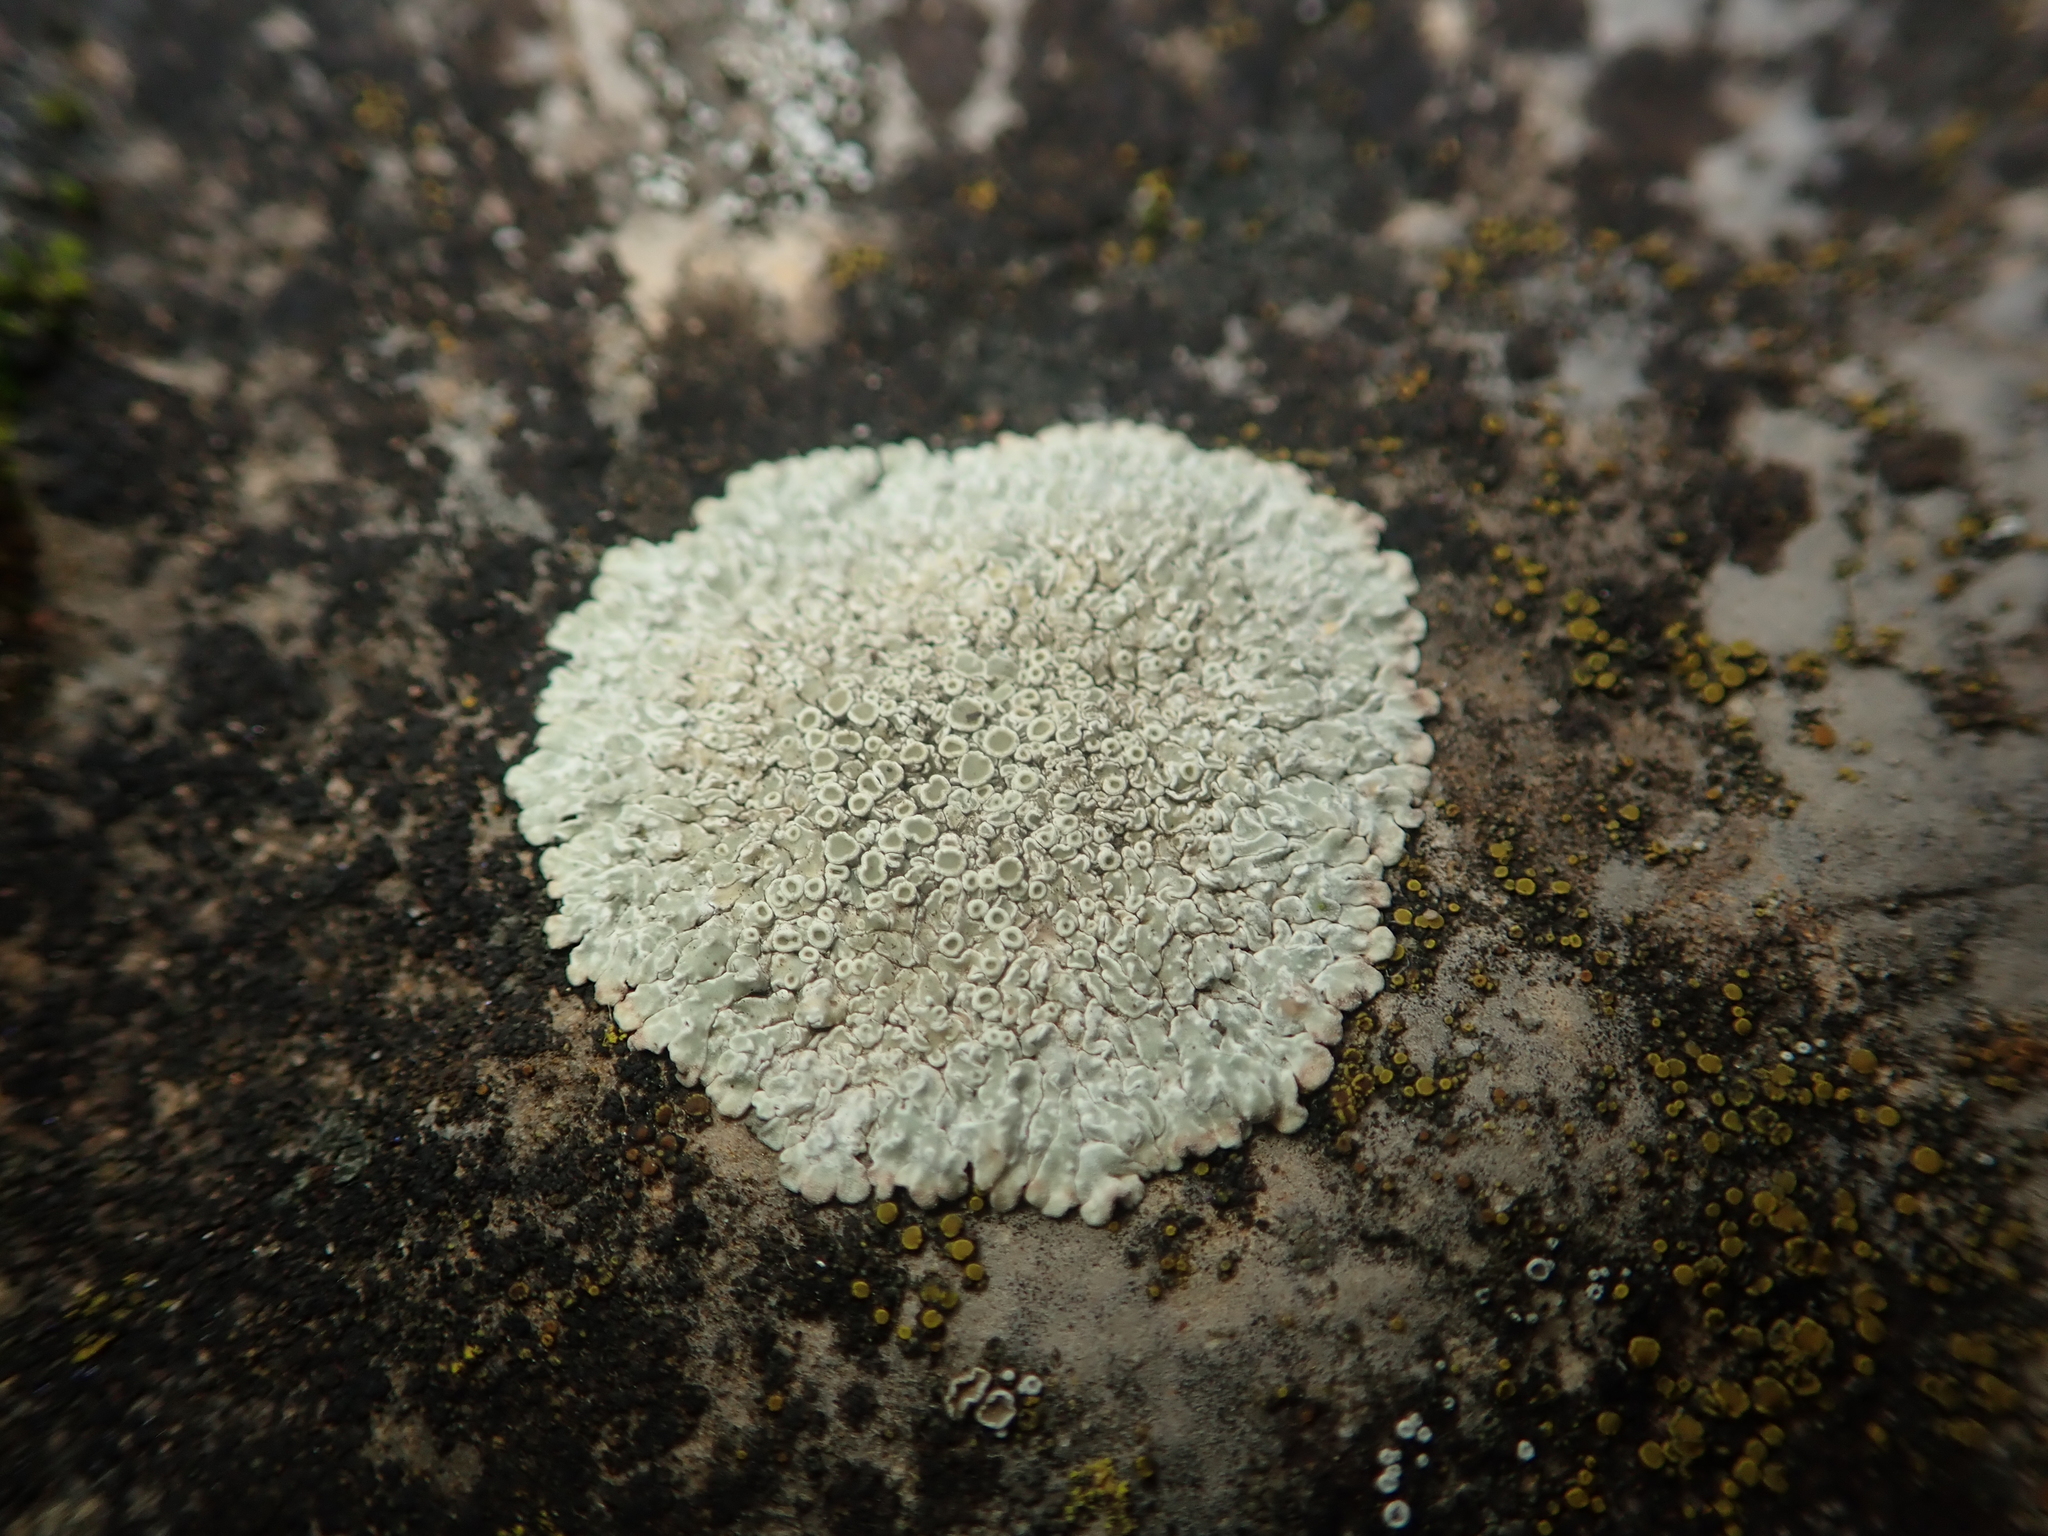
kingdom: Fungi
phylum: Ascomycota
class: Lecanoromycetes
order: Lecanorales
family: Lecanoraceae
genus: Protoparmeliopsis
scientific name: Protoparmeliopsis muralis
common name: Stonewall rim lichen
